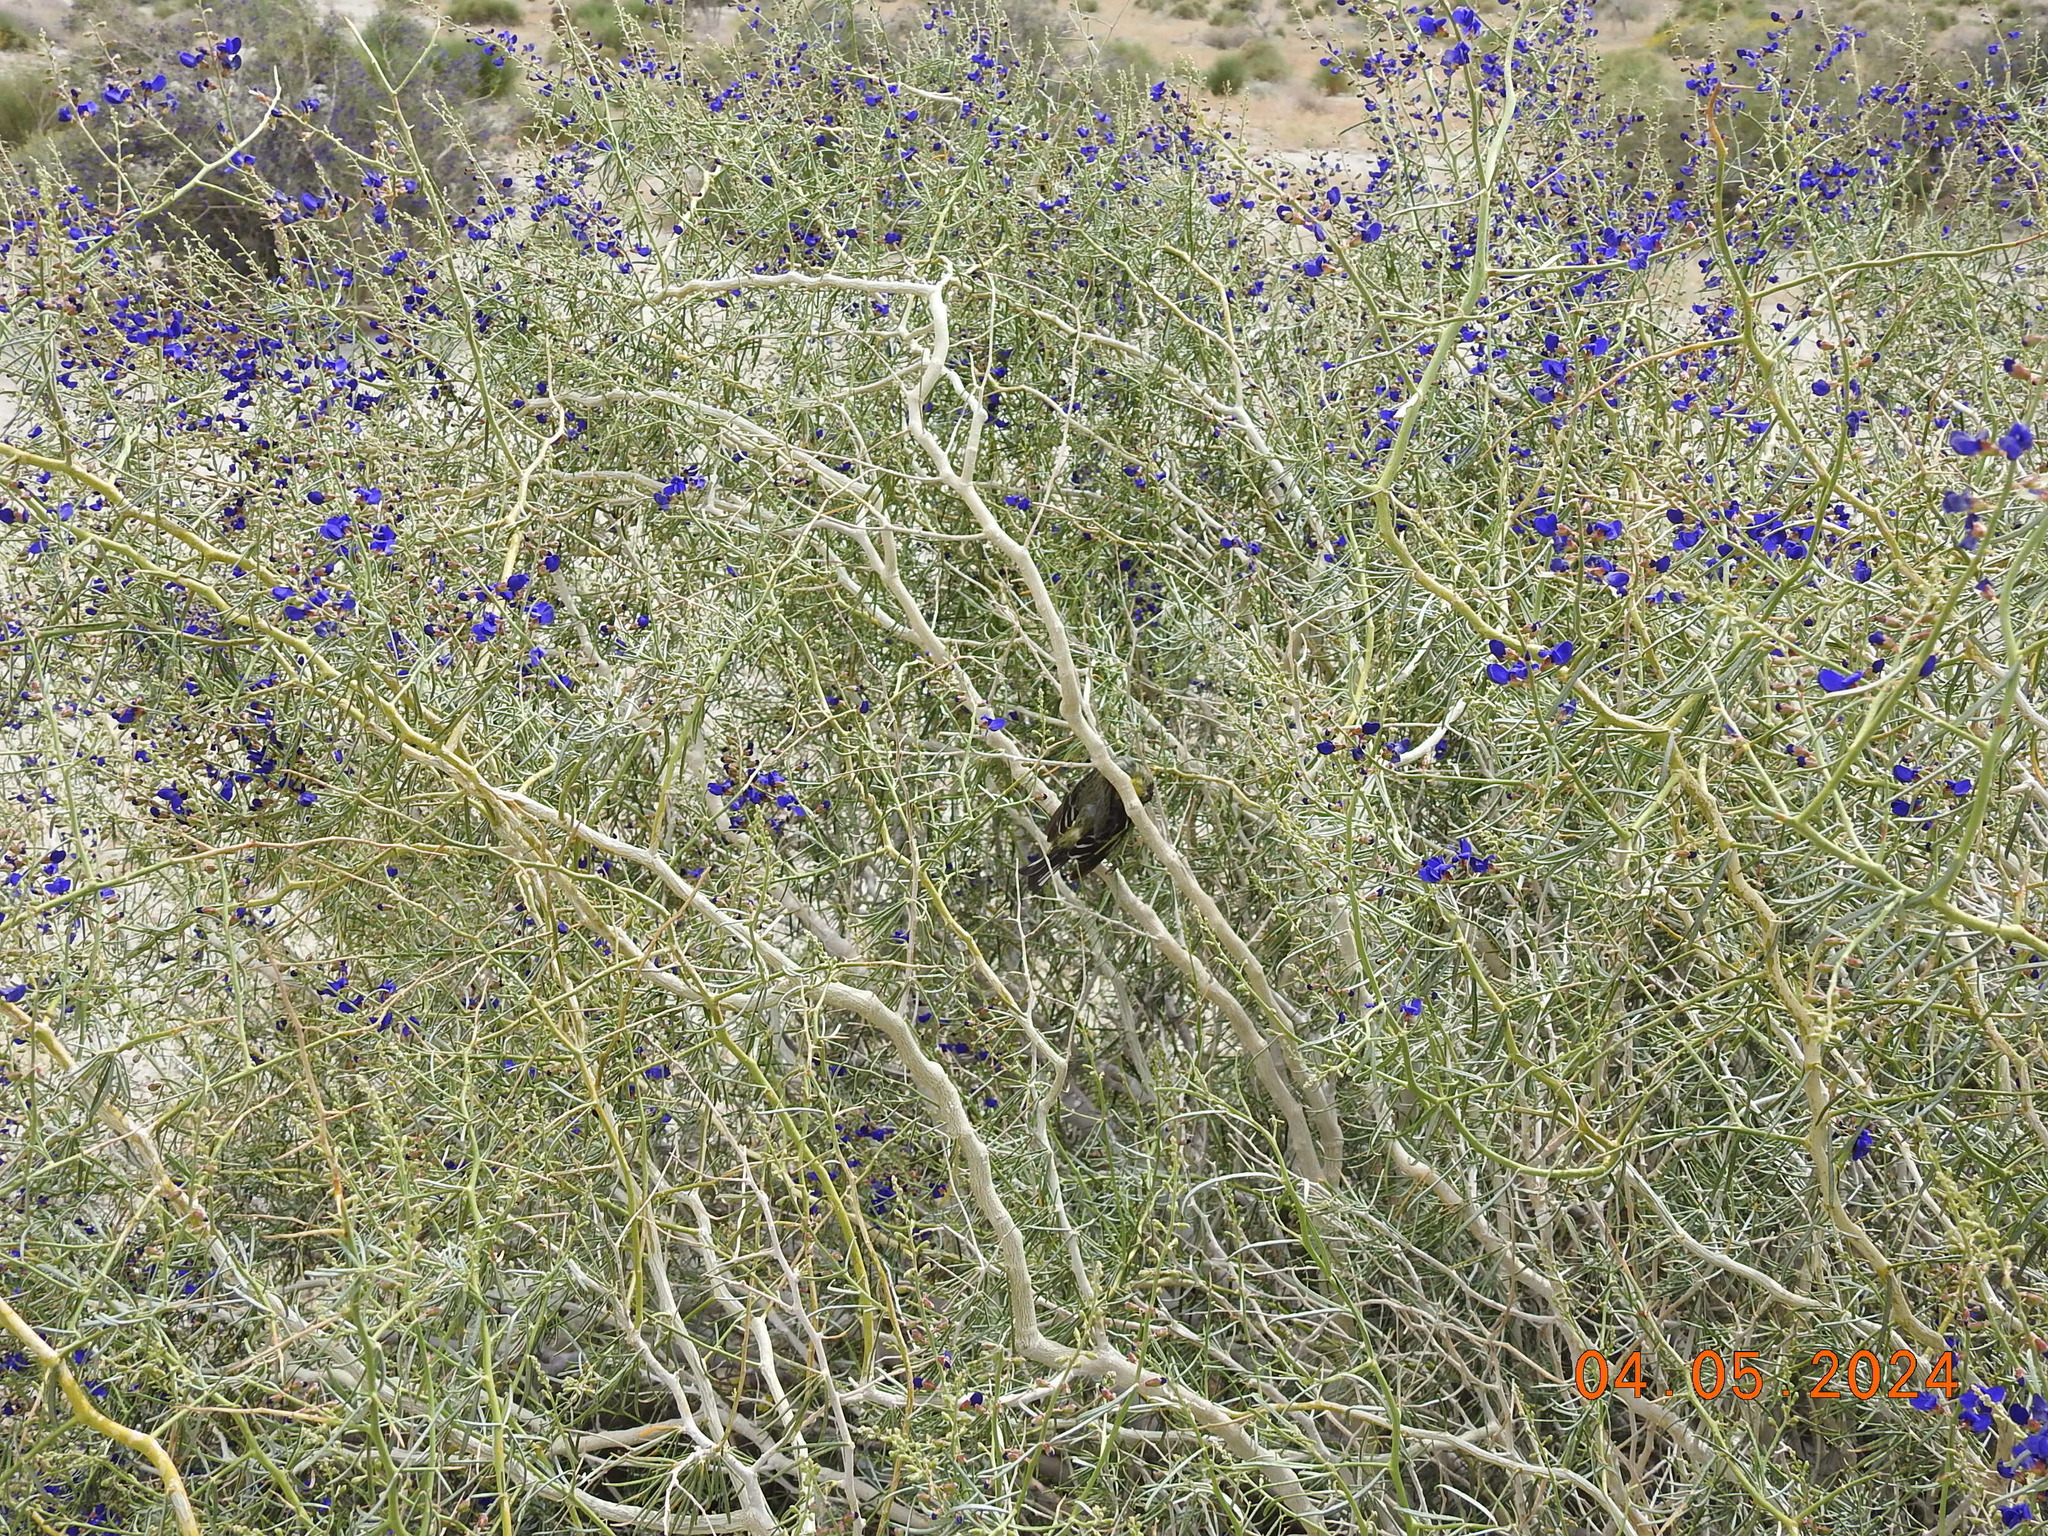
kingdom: Animalia
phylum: Chordata
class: Aves
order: Passeriformes
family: Fringillidae
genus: Spinus
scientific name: Spinus psaltria
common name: Lesser goldfinch
